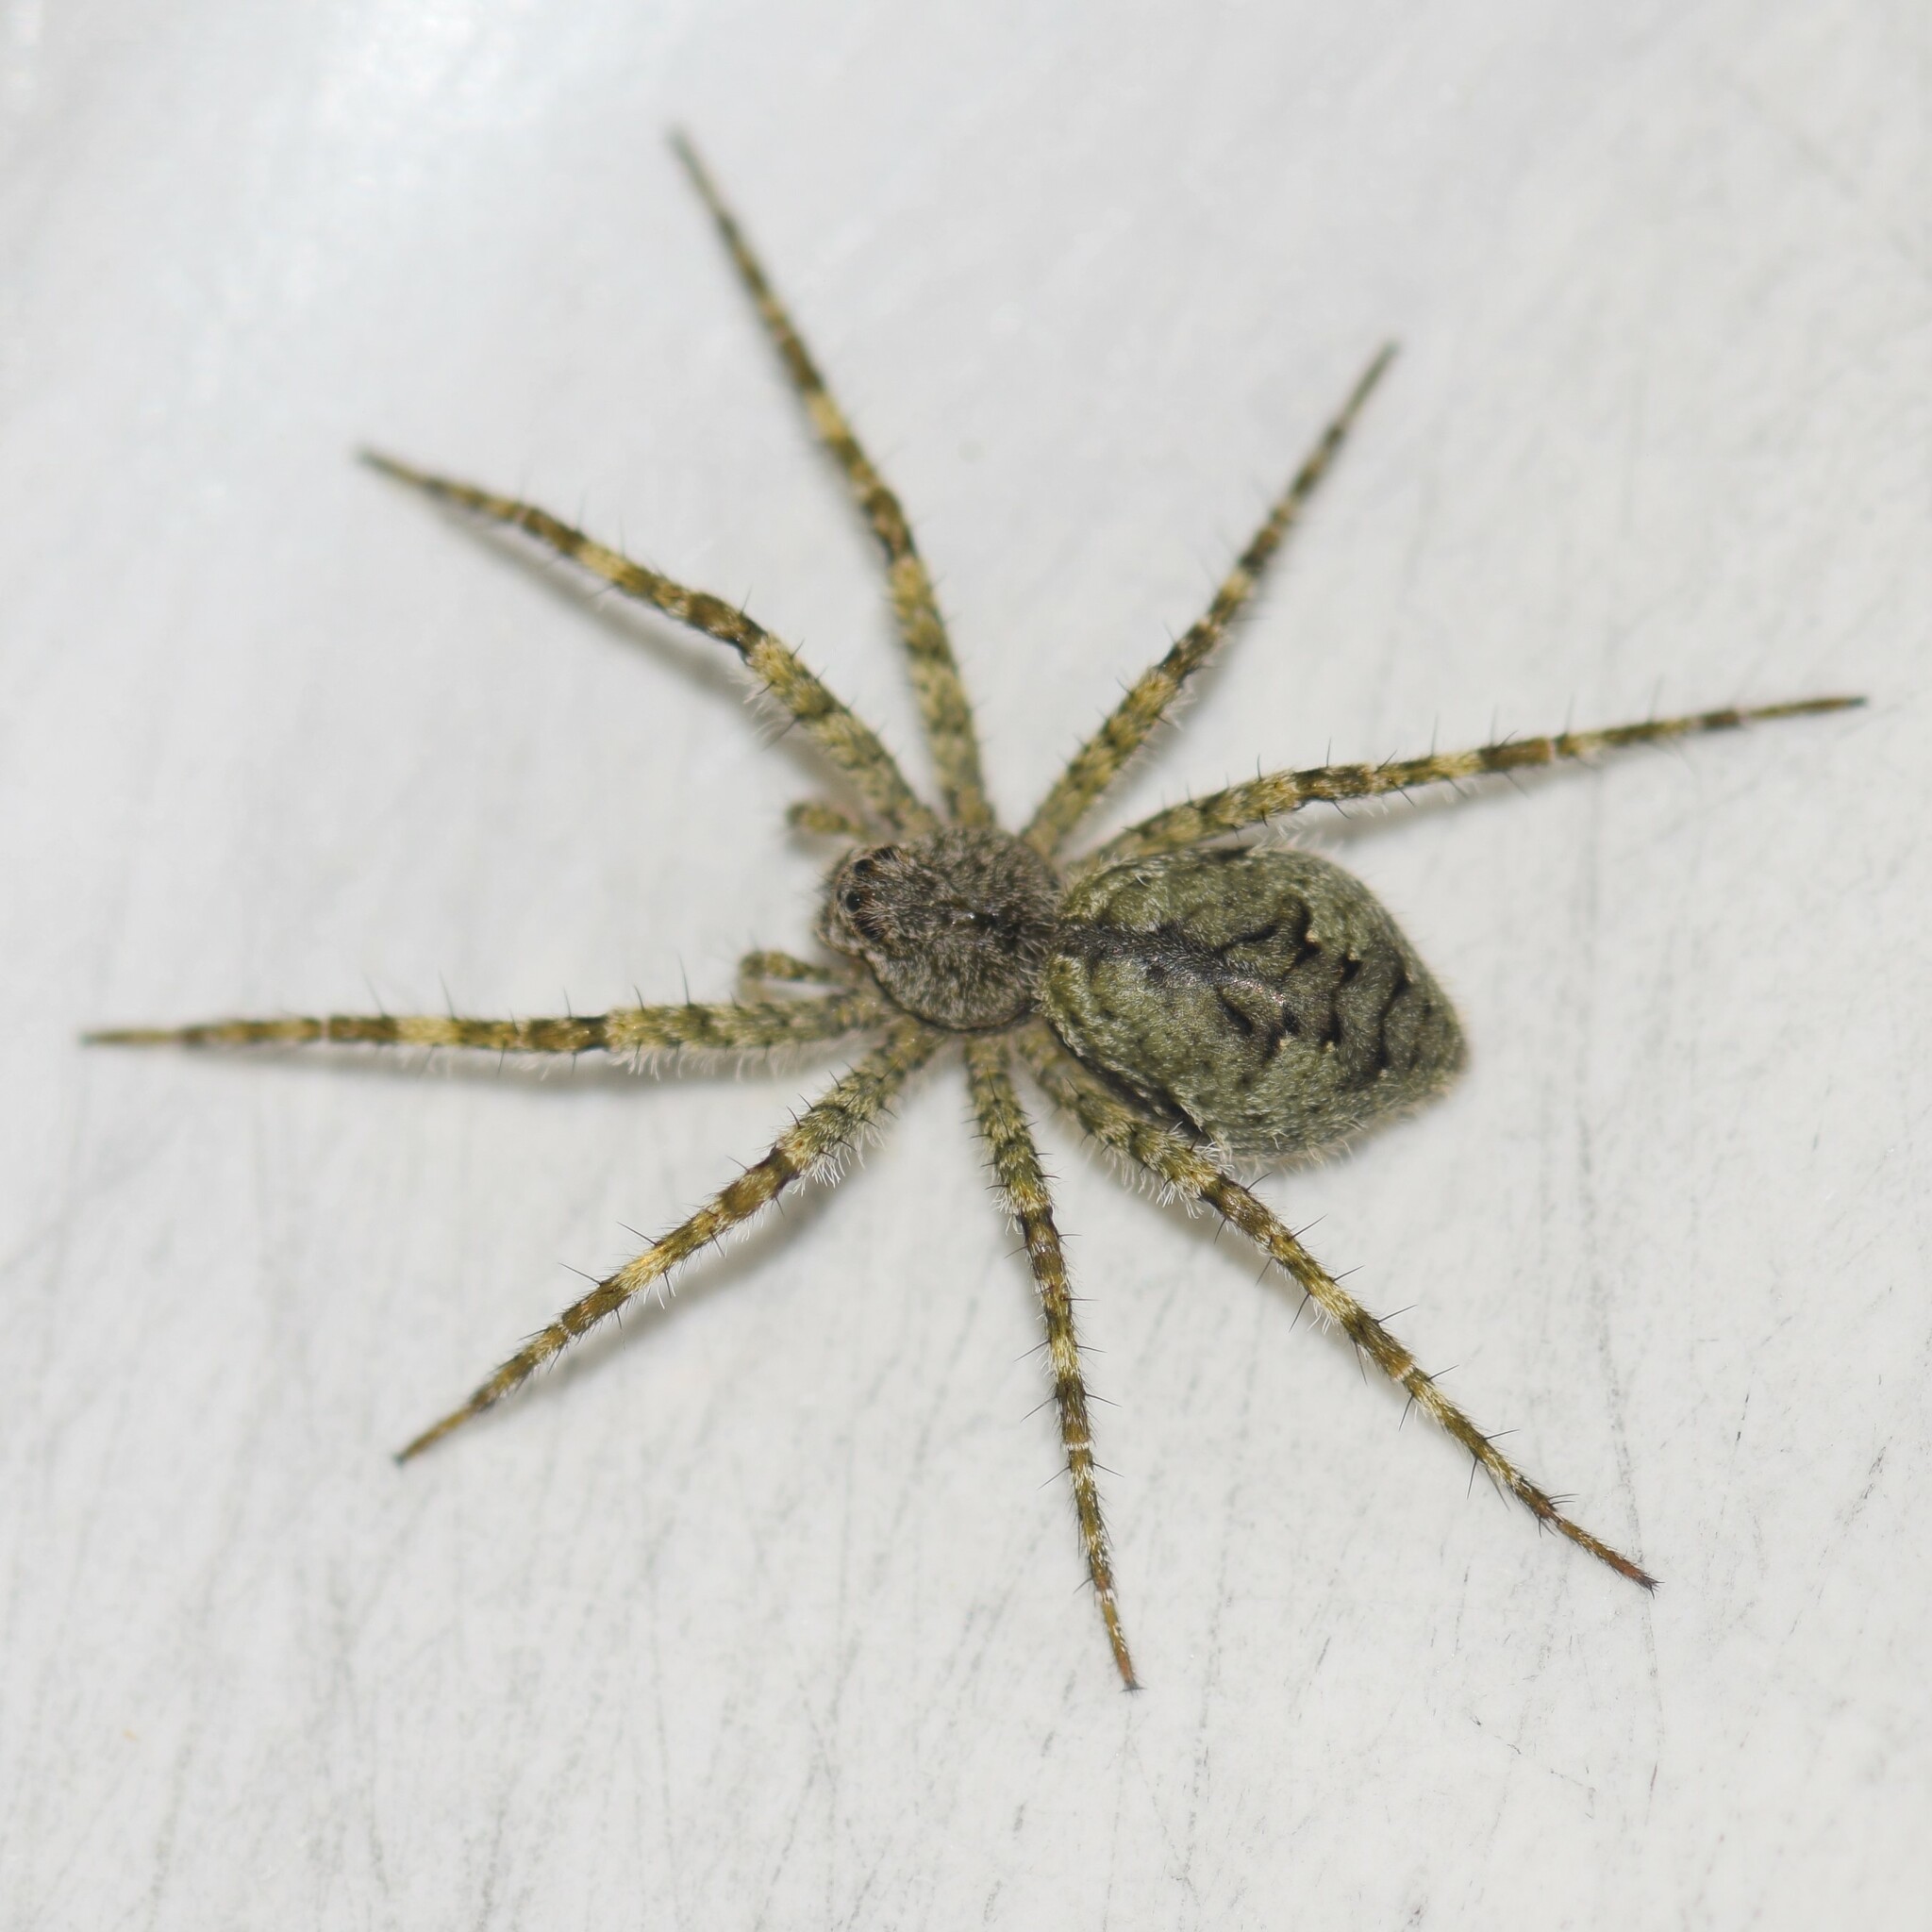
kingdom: Animalia
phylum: Arthropoda
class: Arachnida
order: Araneae
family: Pisauridae
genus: Dolomedes
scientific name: Dolomedes albineus
